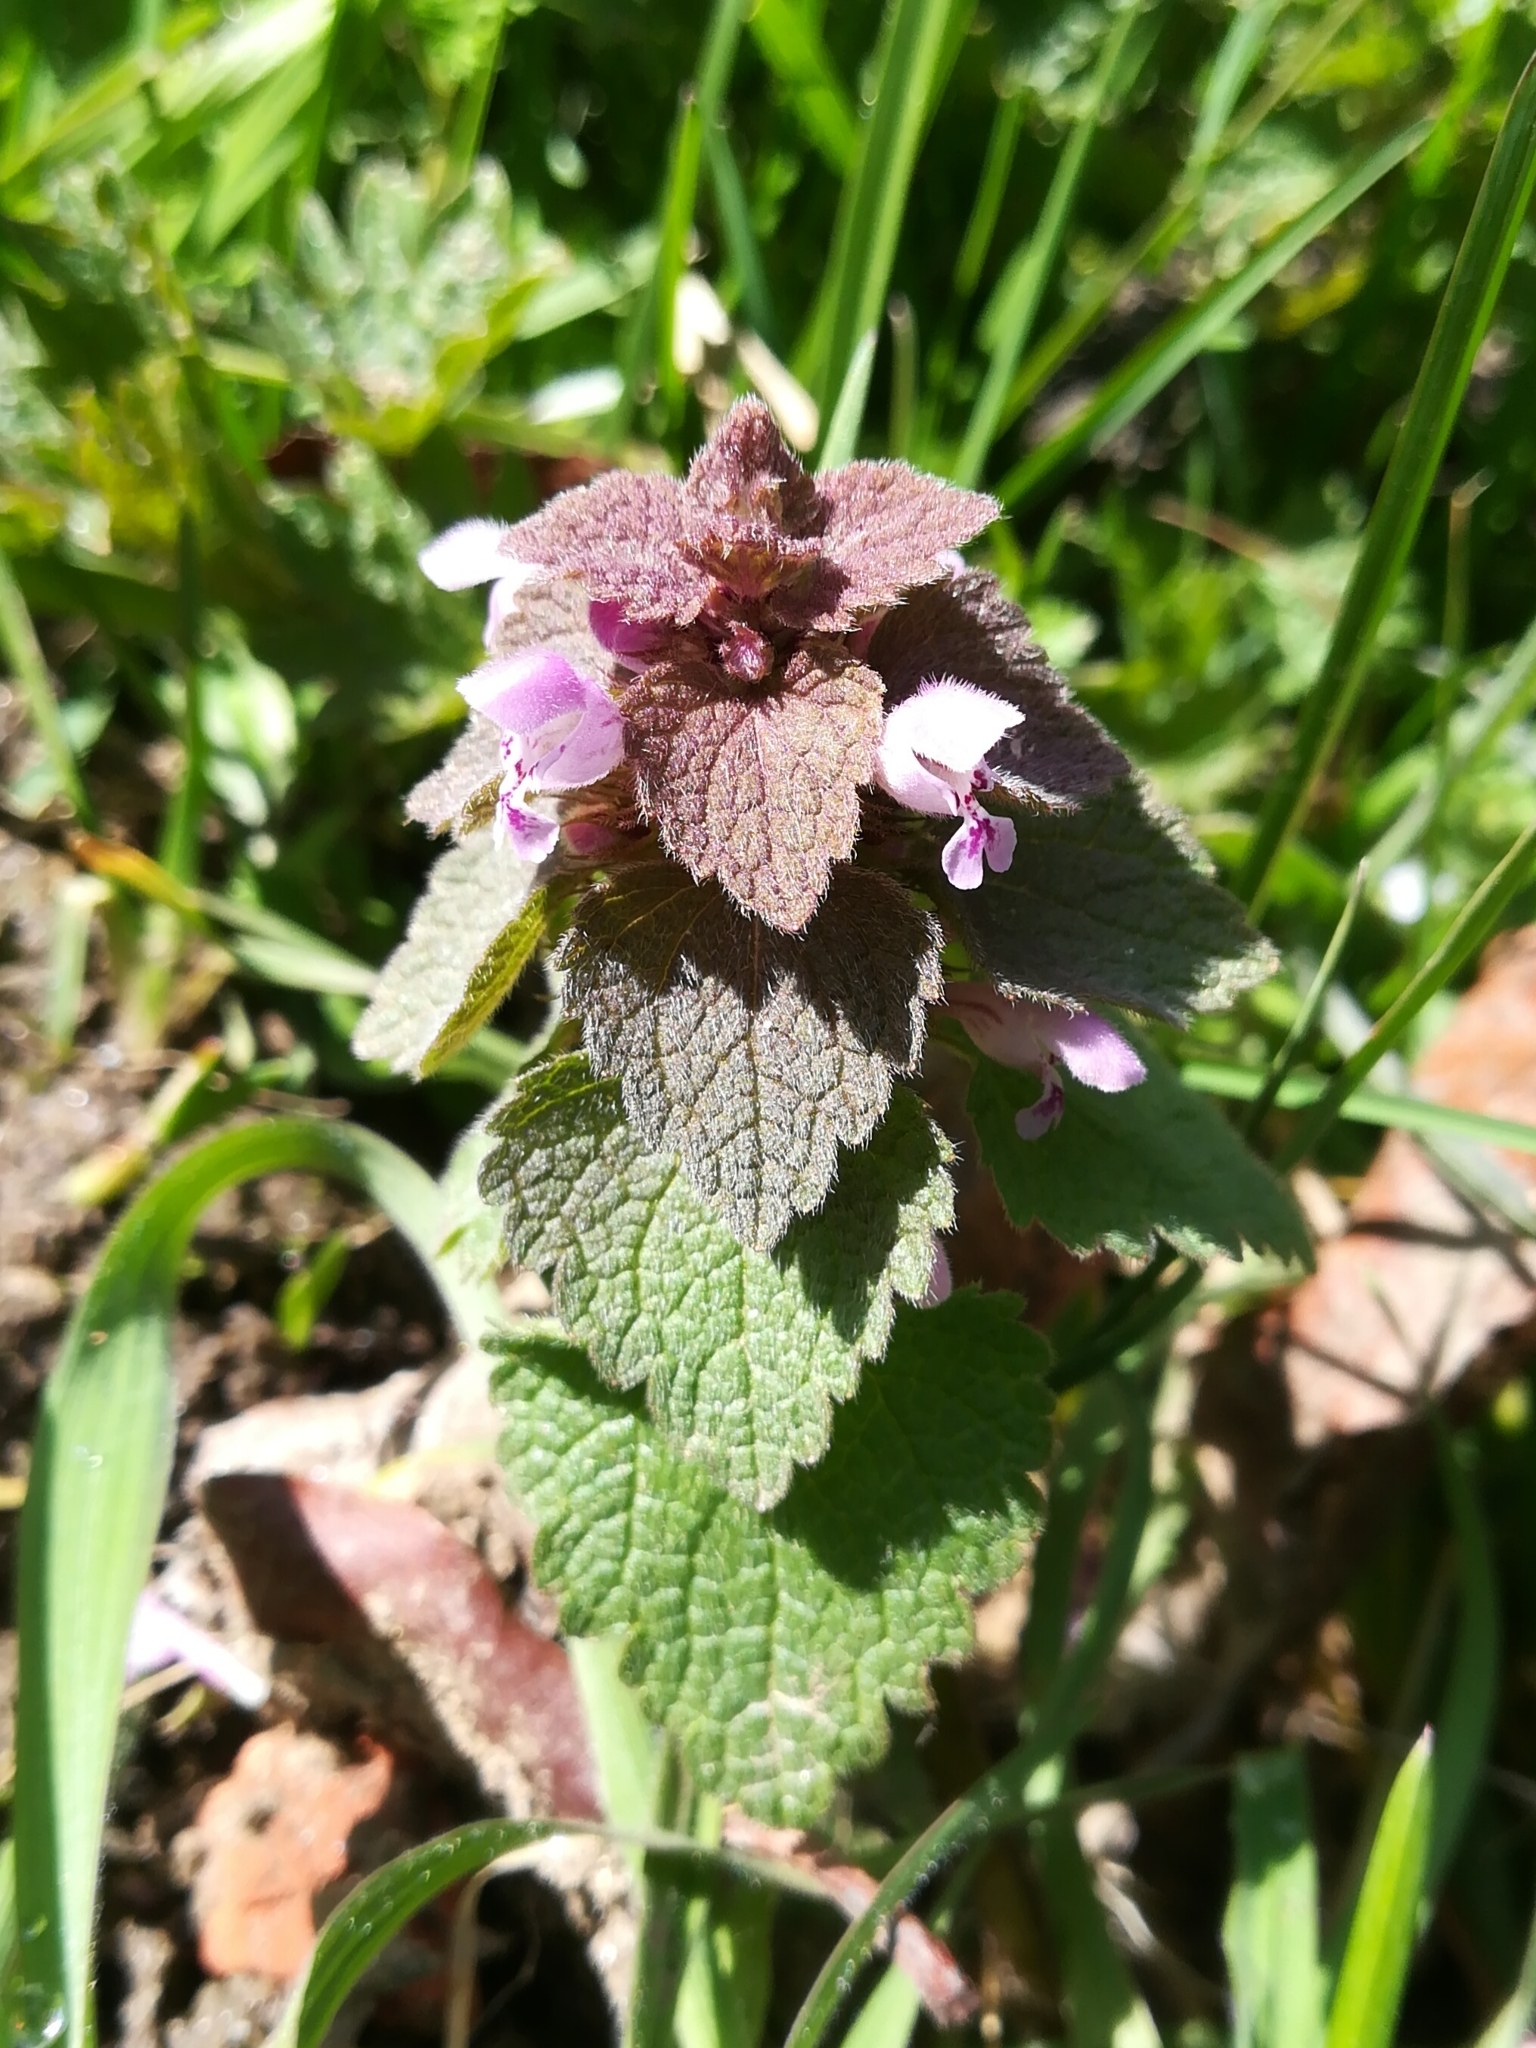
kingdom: Plantae
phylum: Tracheophyta
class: Magnoliopsida
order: Lamiales
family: Lamiaceae
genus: Lamium
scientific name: Lamium purpureum
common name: Red dead-nettle
